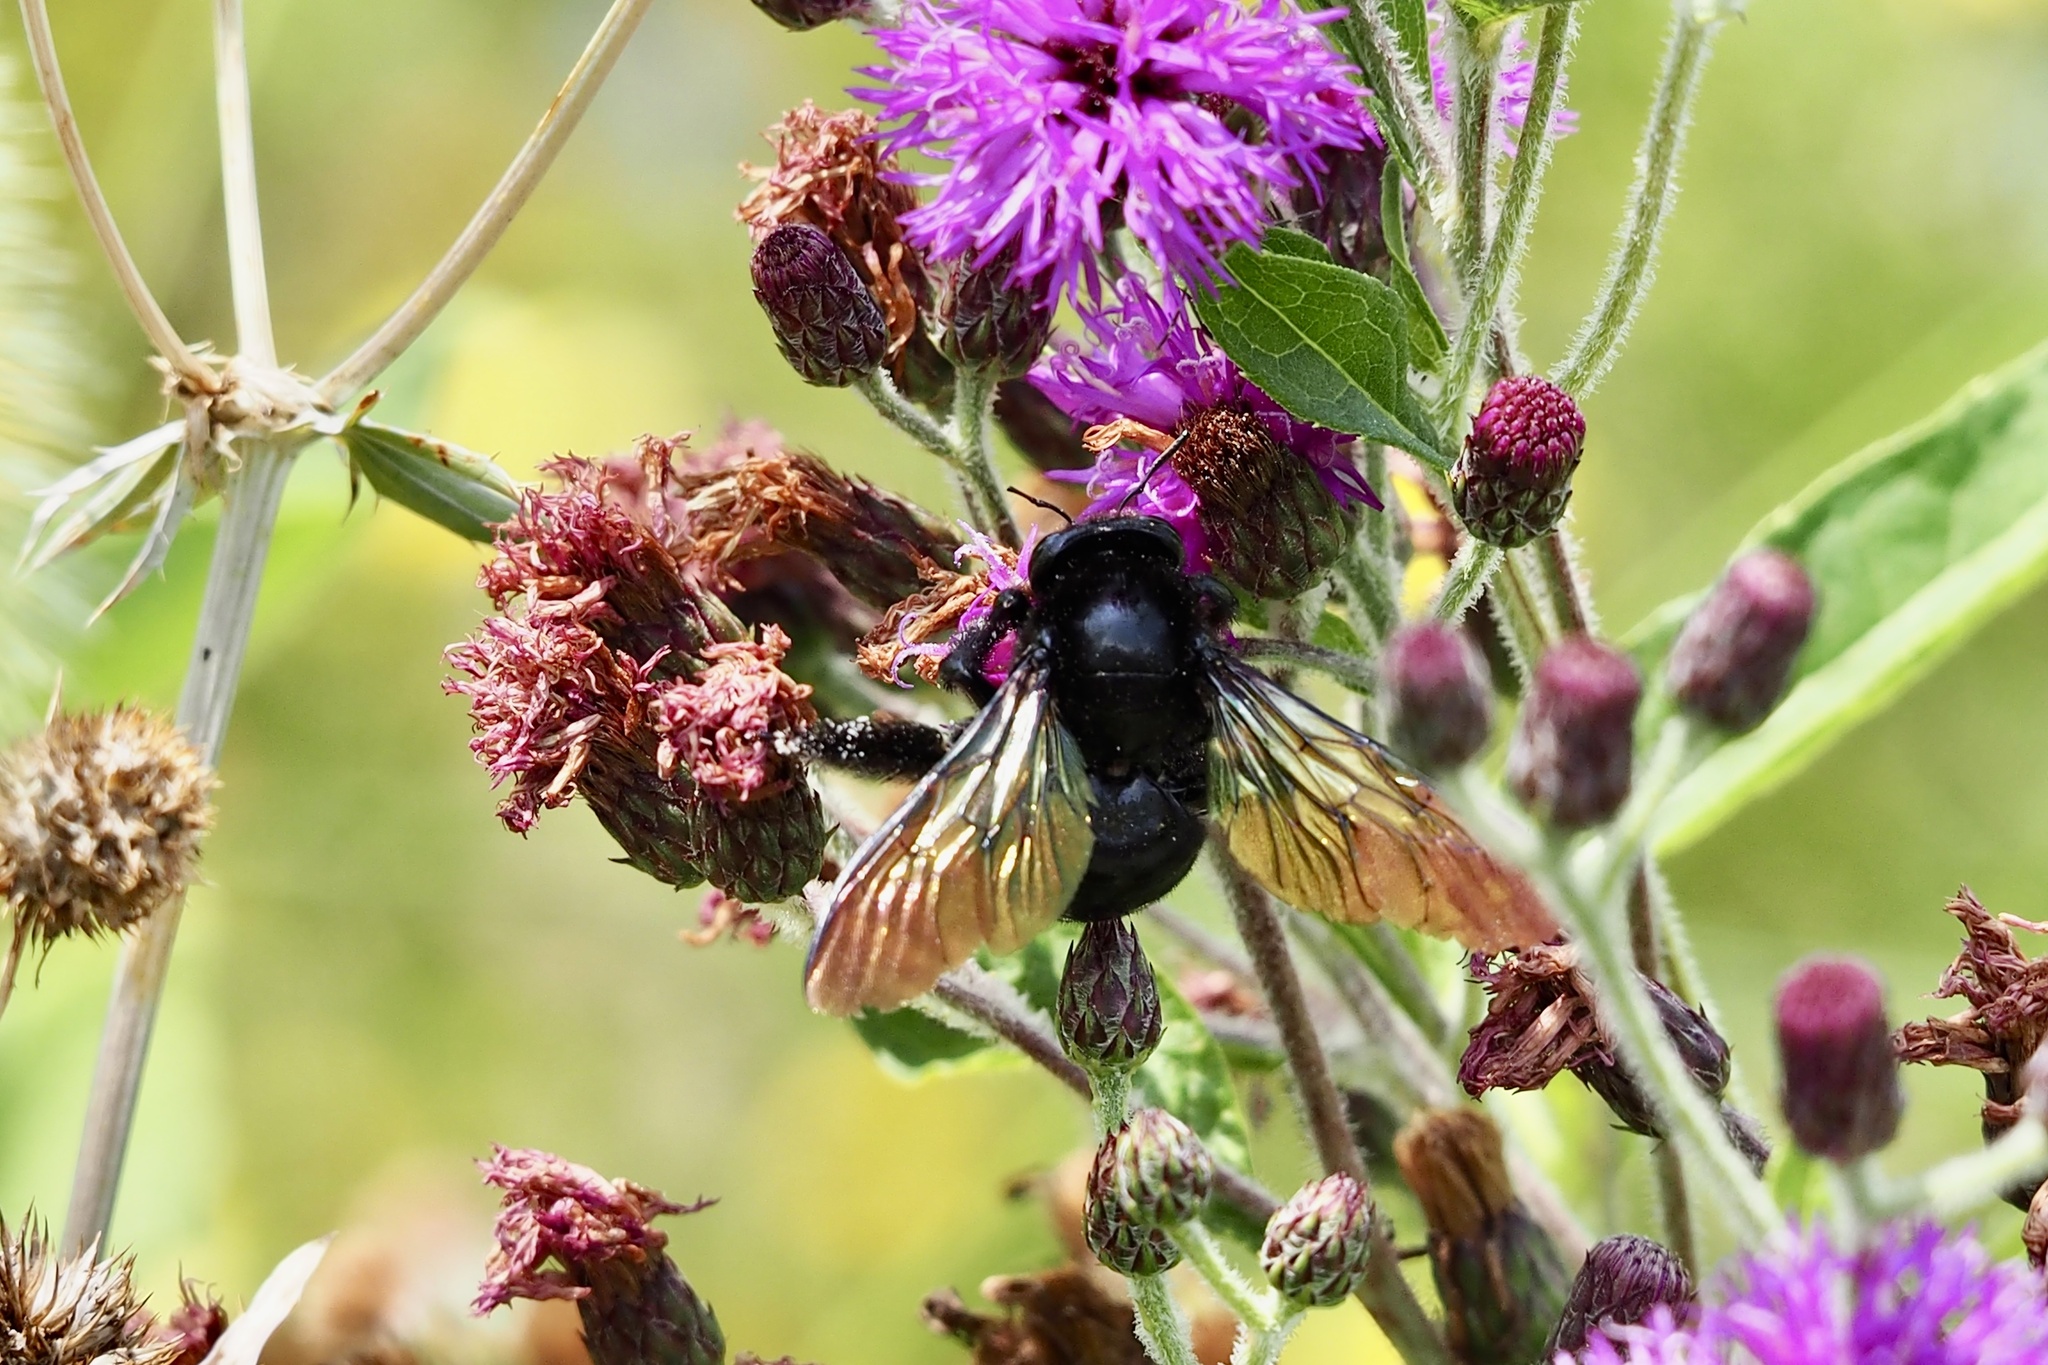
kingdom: Animalia
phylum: Arthropoda
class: Insecta
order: Hymenoptera
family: Apidae
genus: Xylocopa
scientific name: Xylocopa tranquebarorum
